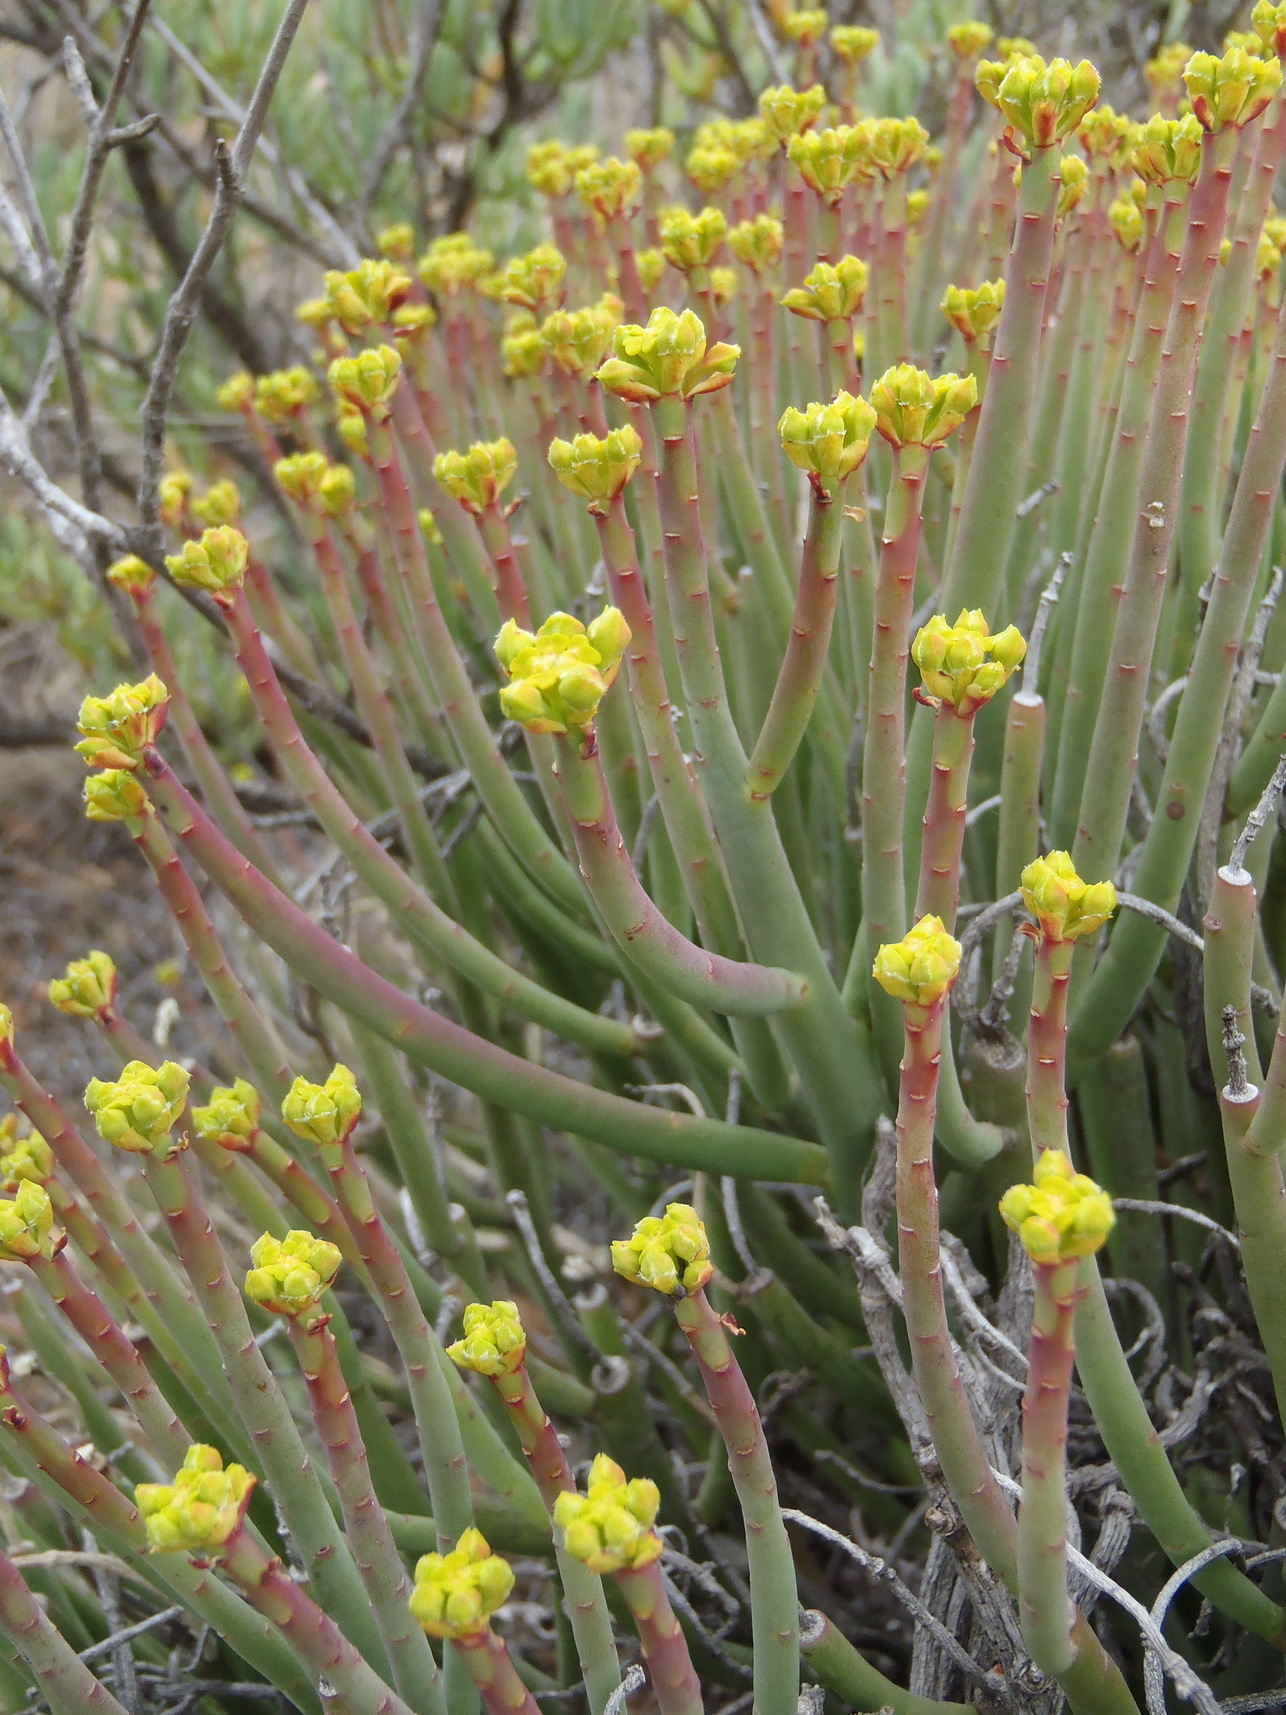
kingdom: Plantae
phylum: Tracheophyta
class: Magnoliopsida
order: Malpighiales
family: Euphorbiaceae
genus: Euphorbia
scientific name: Euphorbia mauritanica
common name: Jackal's-food
